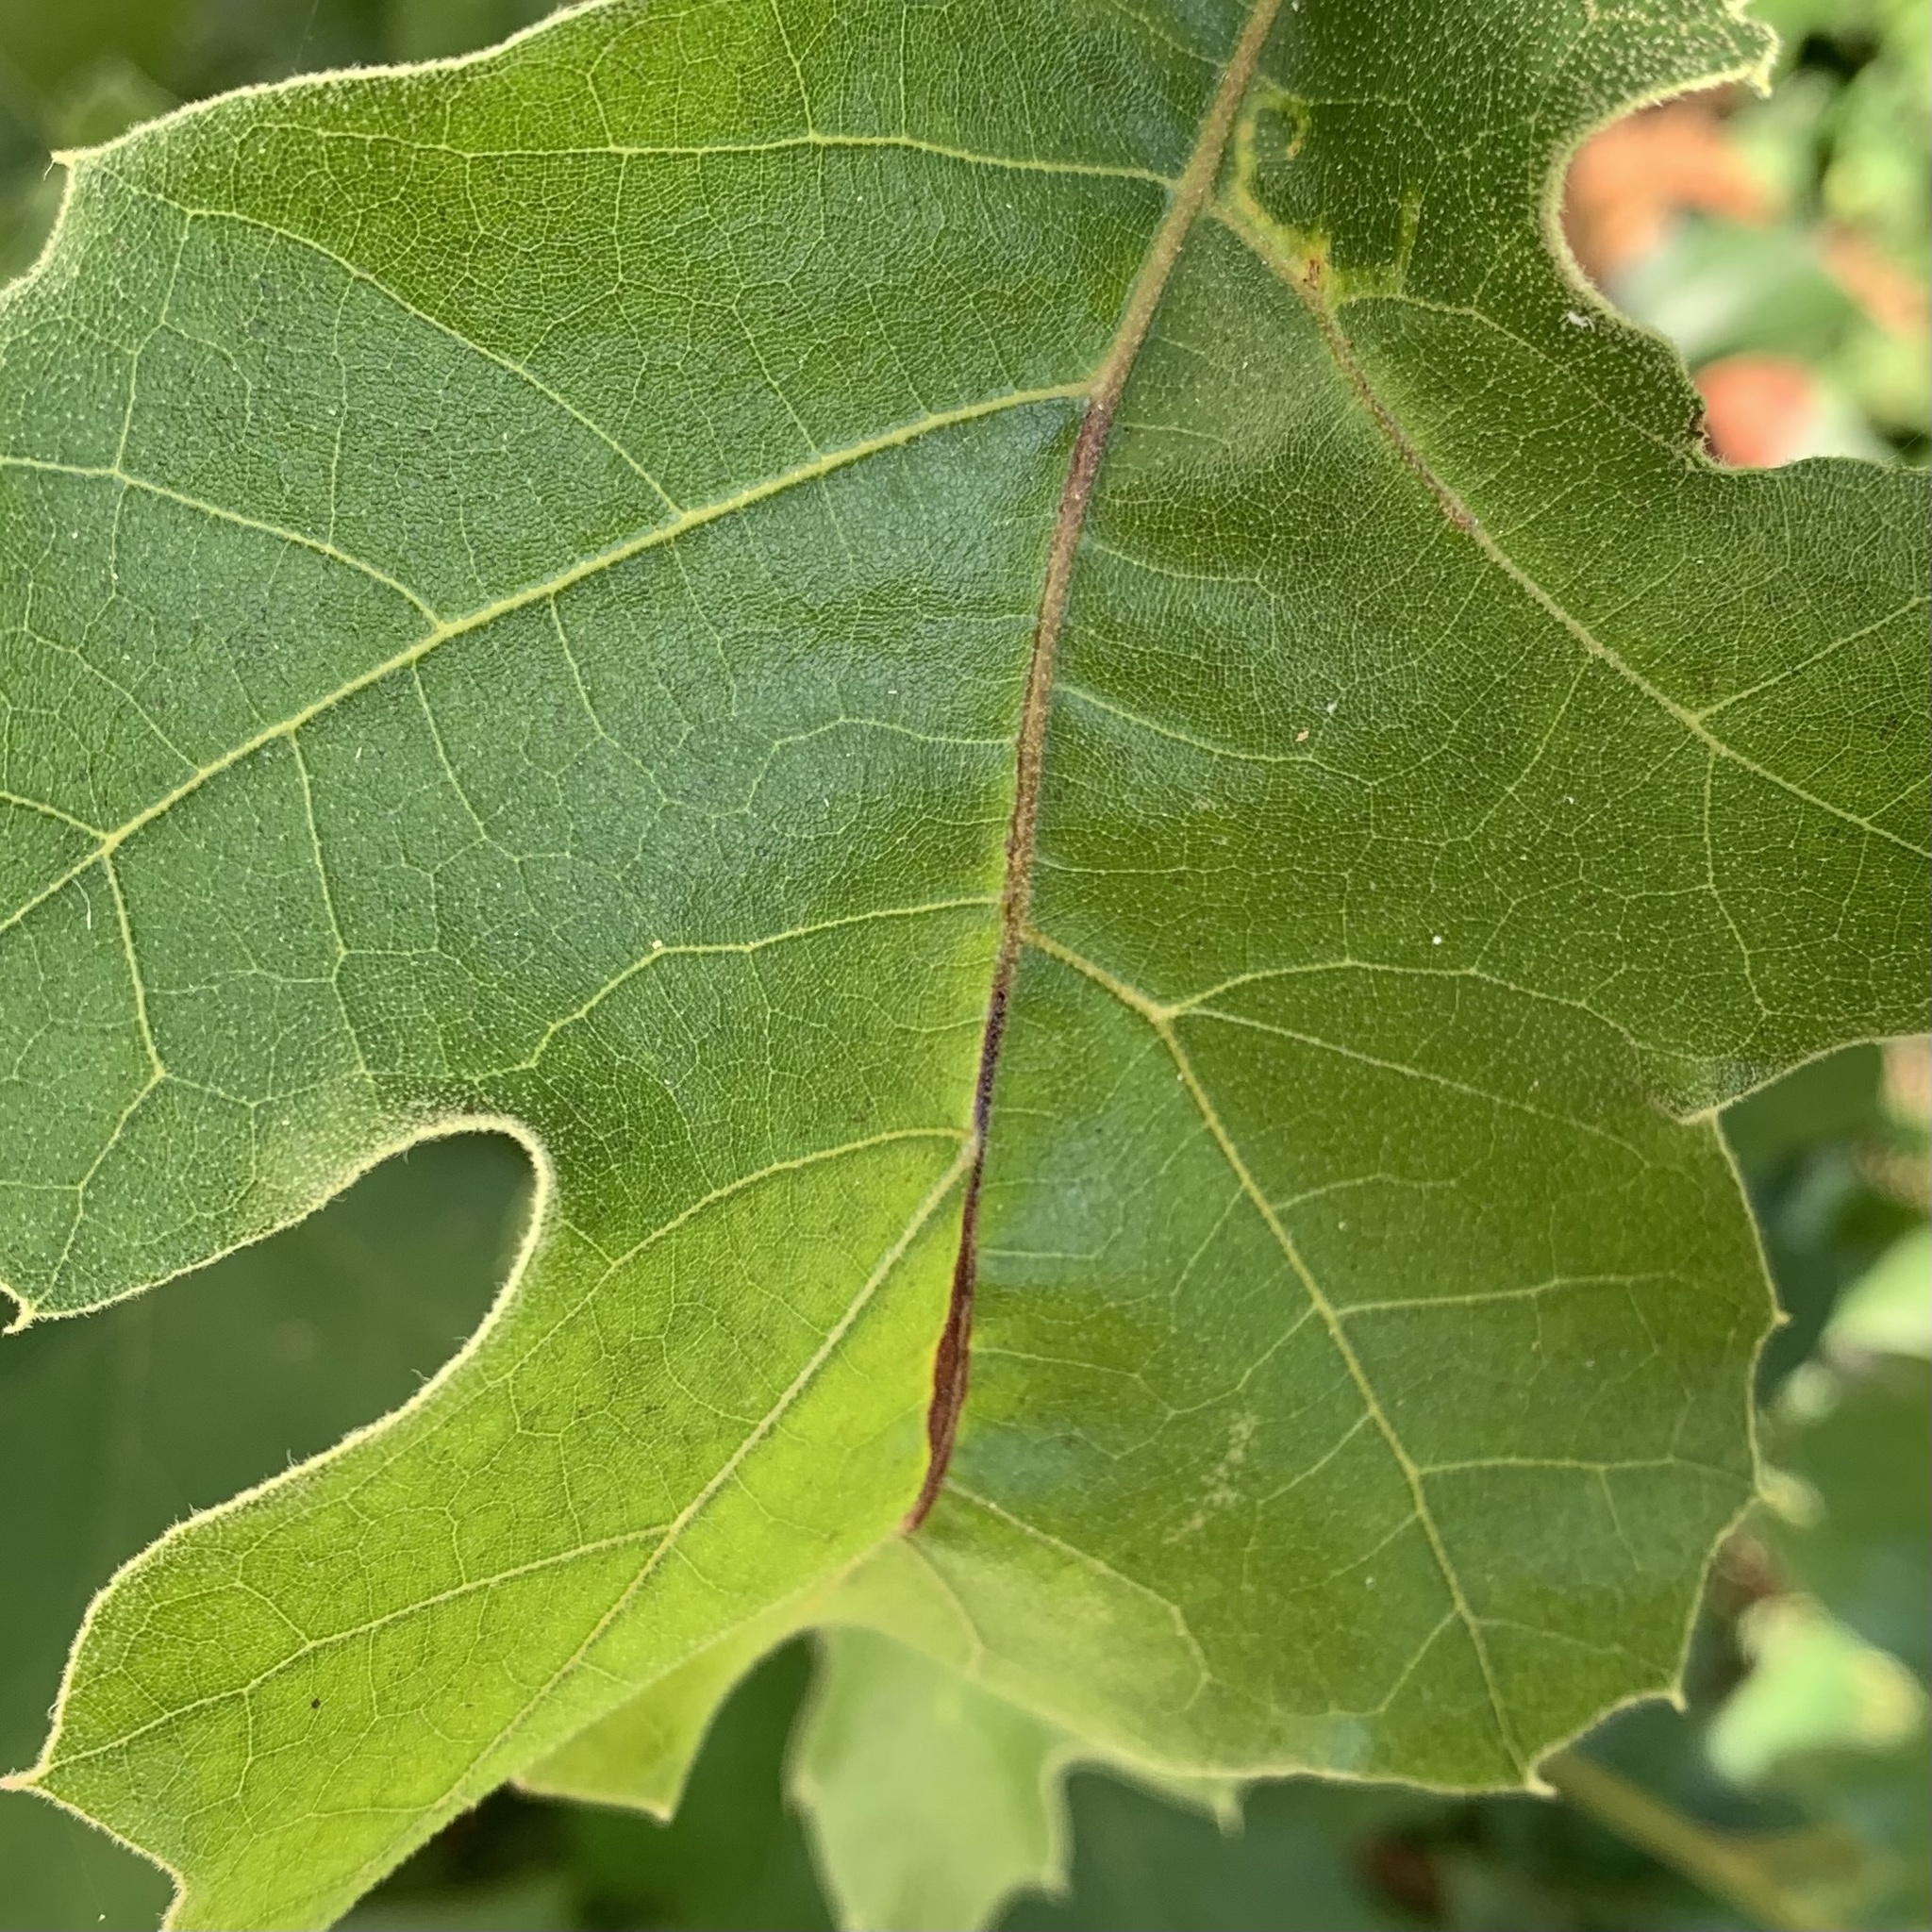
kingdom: Animalia
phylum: Arthropoda
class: Insecta
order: Lepidoptera
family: Gracillariidae
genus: Neurobathra
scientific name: Neurobathra strigifinitella
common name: Finite-channeled leafminer moth
